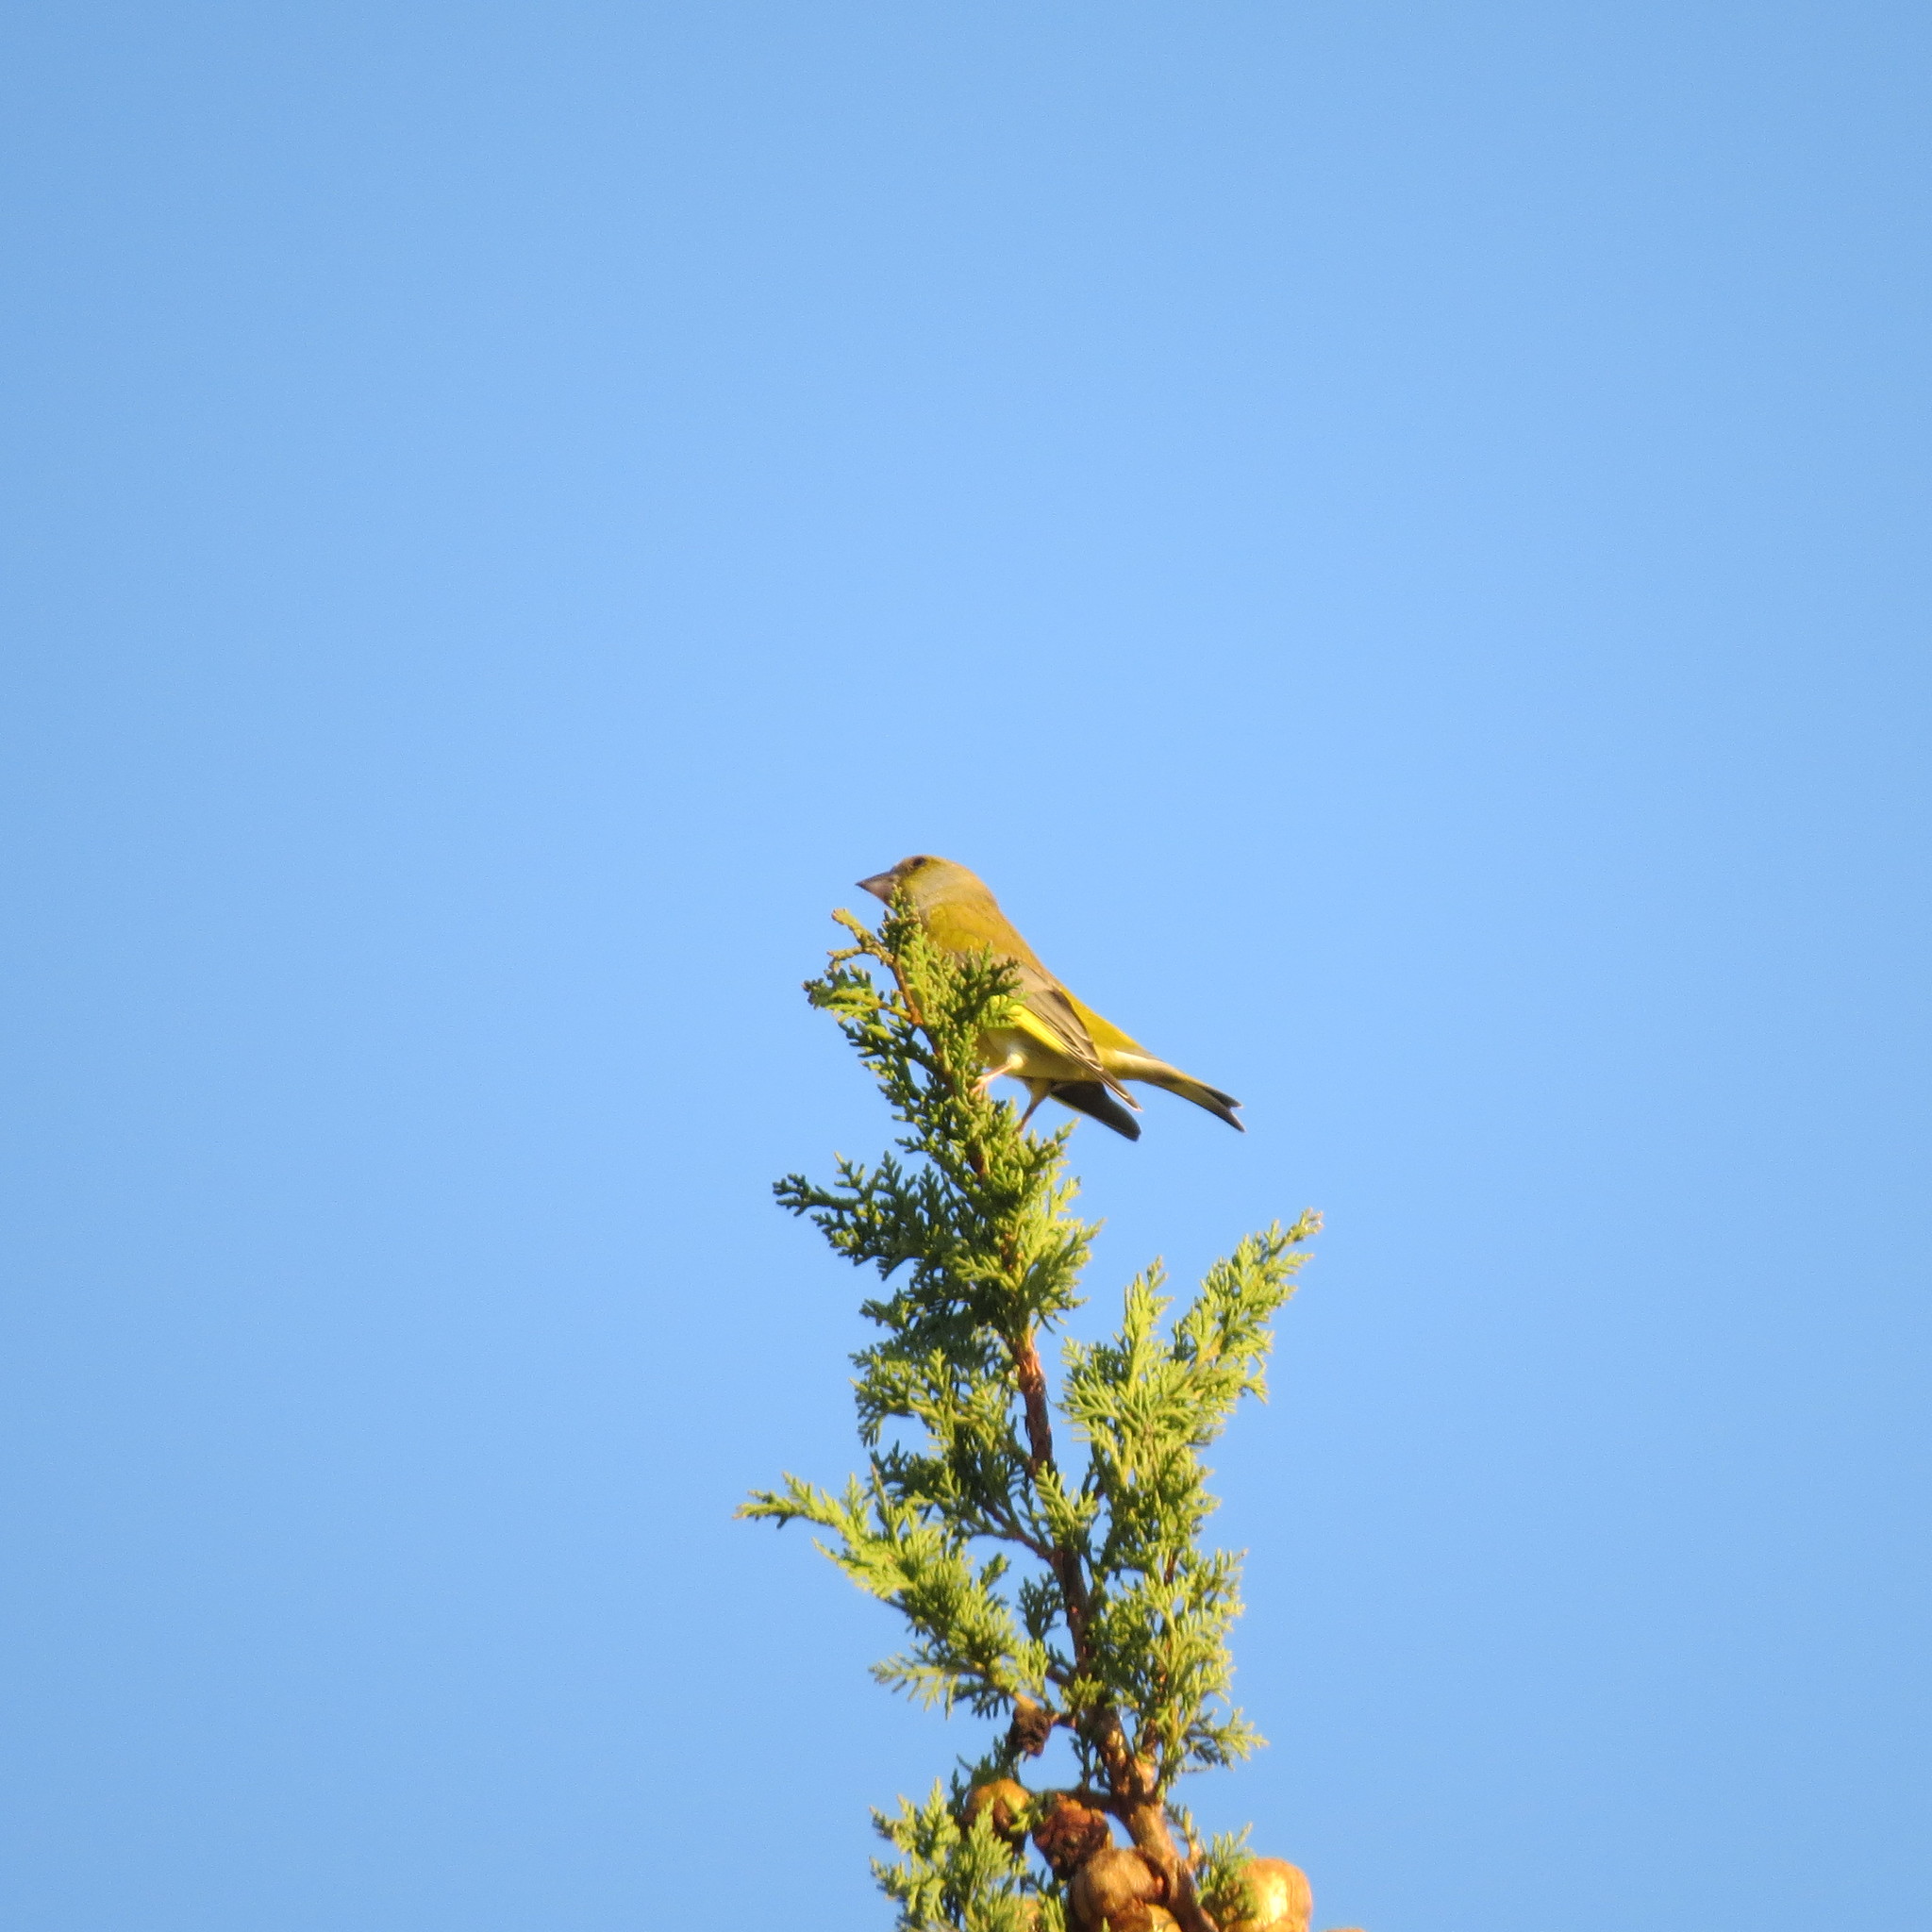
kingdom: Plantae
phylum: Tracheophyta
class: Liliopsida
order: Poales
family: Poaceae
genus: Chloris
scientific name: Chloris chloris
